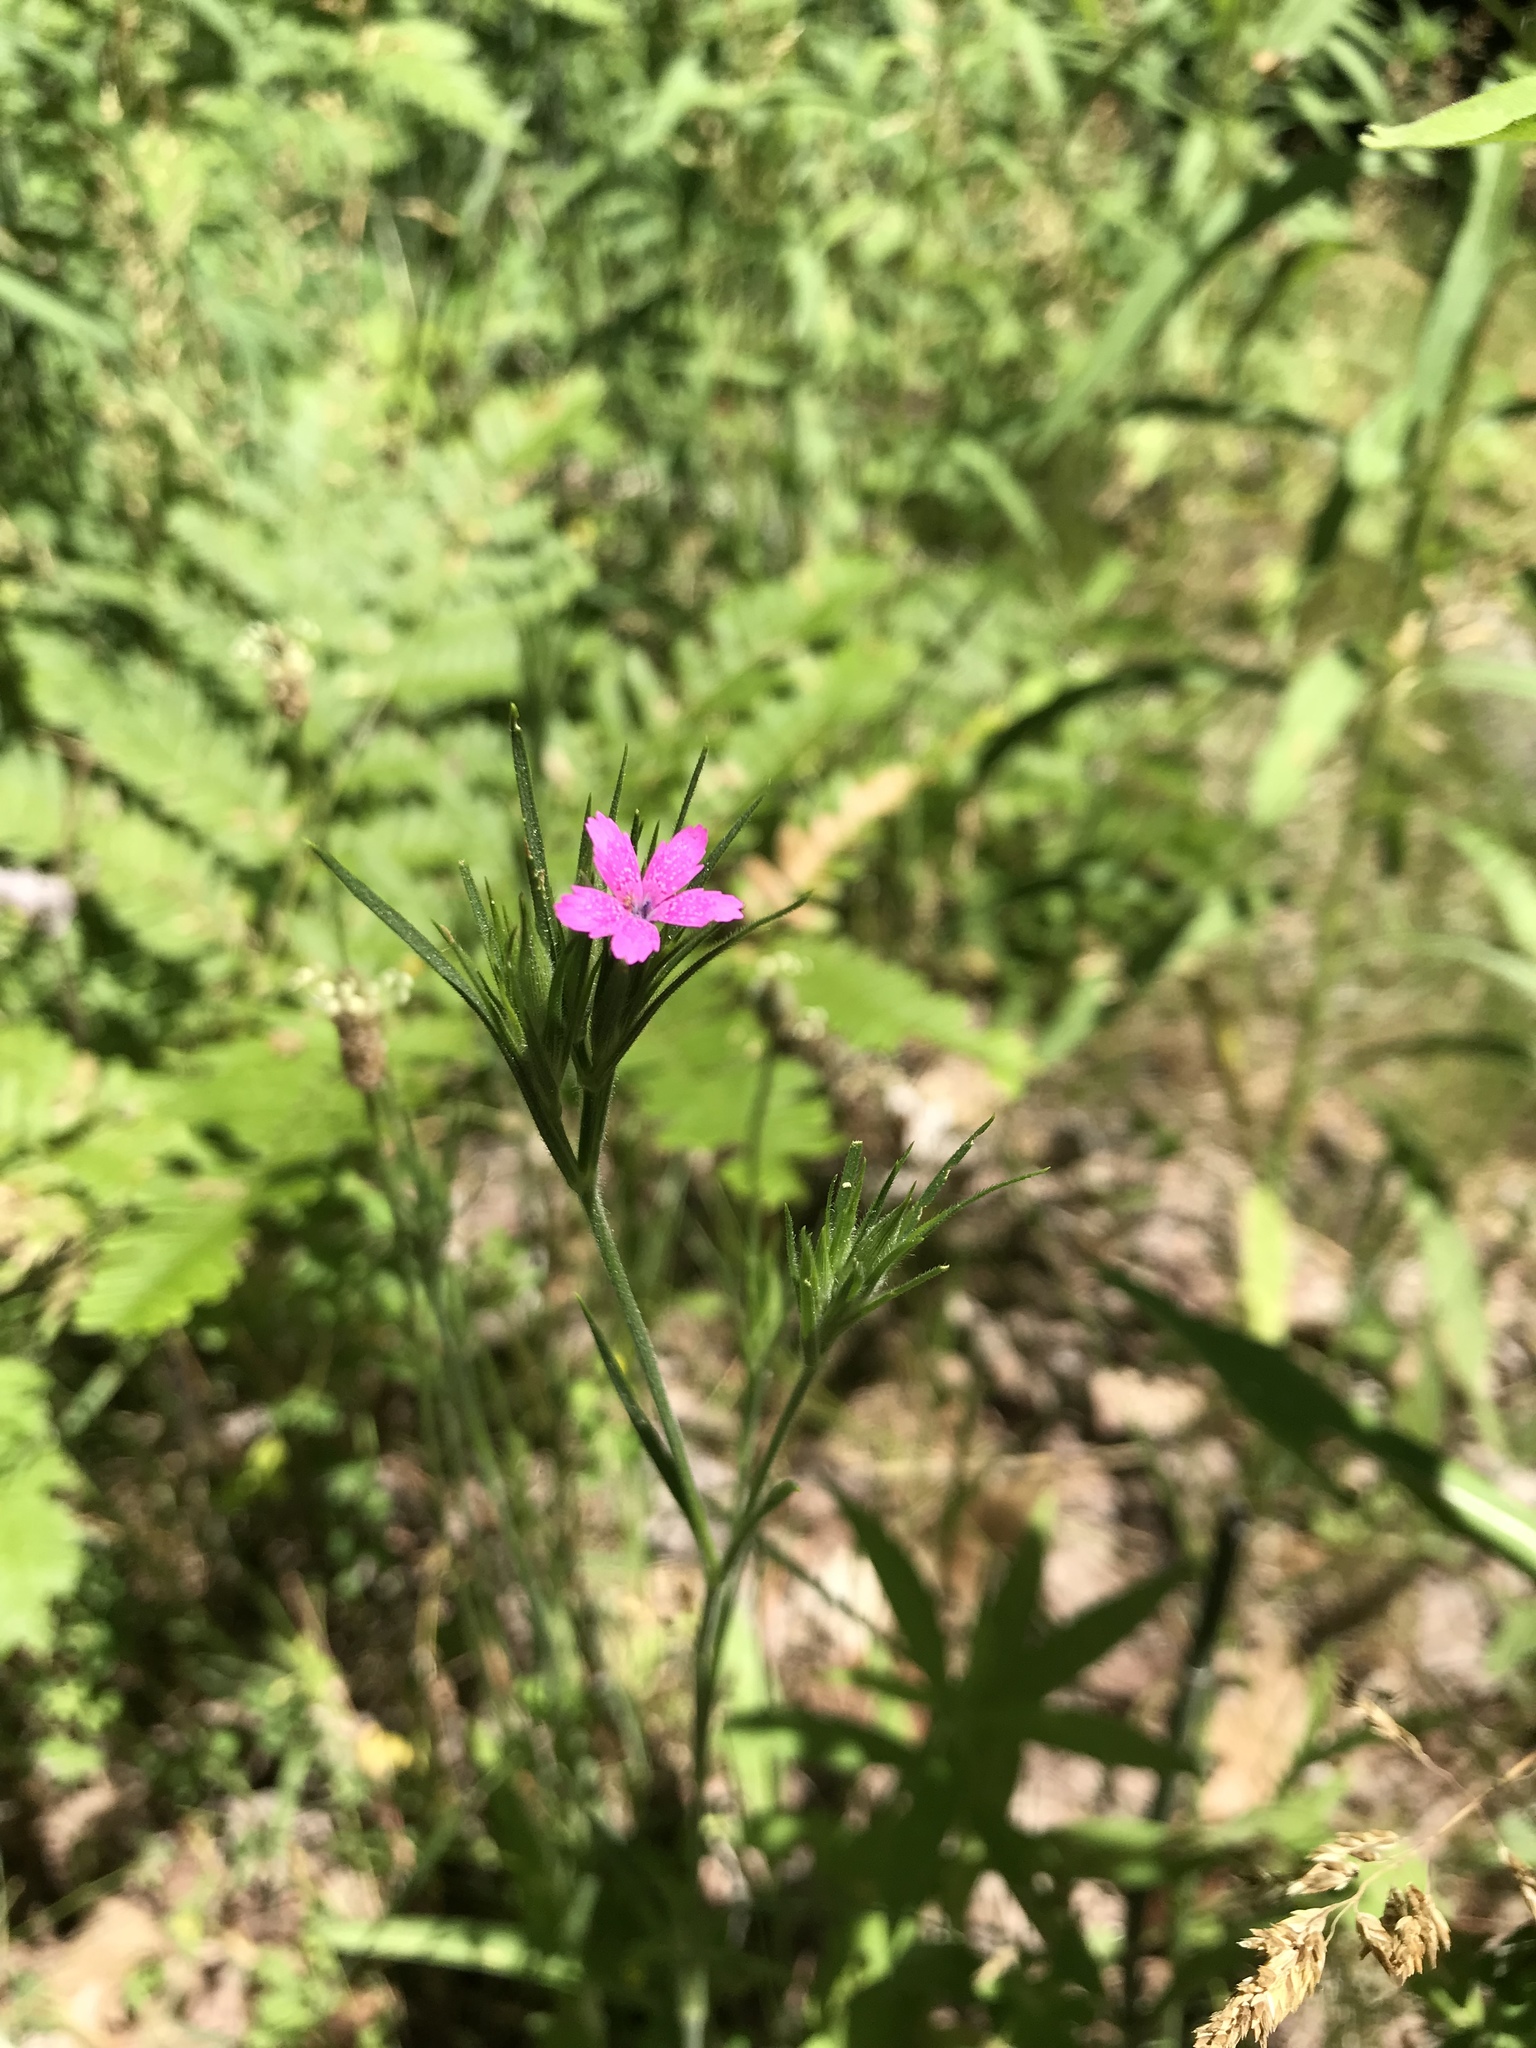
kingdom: Plantae
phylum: Tracheophyta
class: Magnoliopsida
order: Caryophyllales
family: Caryophyllaceae
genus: Dianthus
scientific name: Dianthus armeria
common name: Deptford pink
